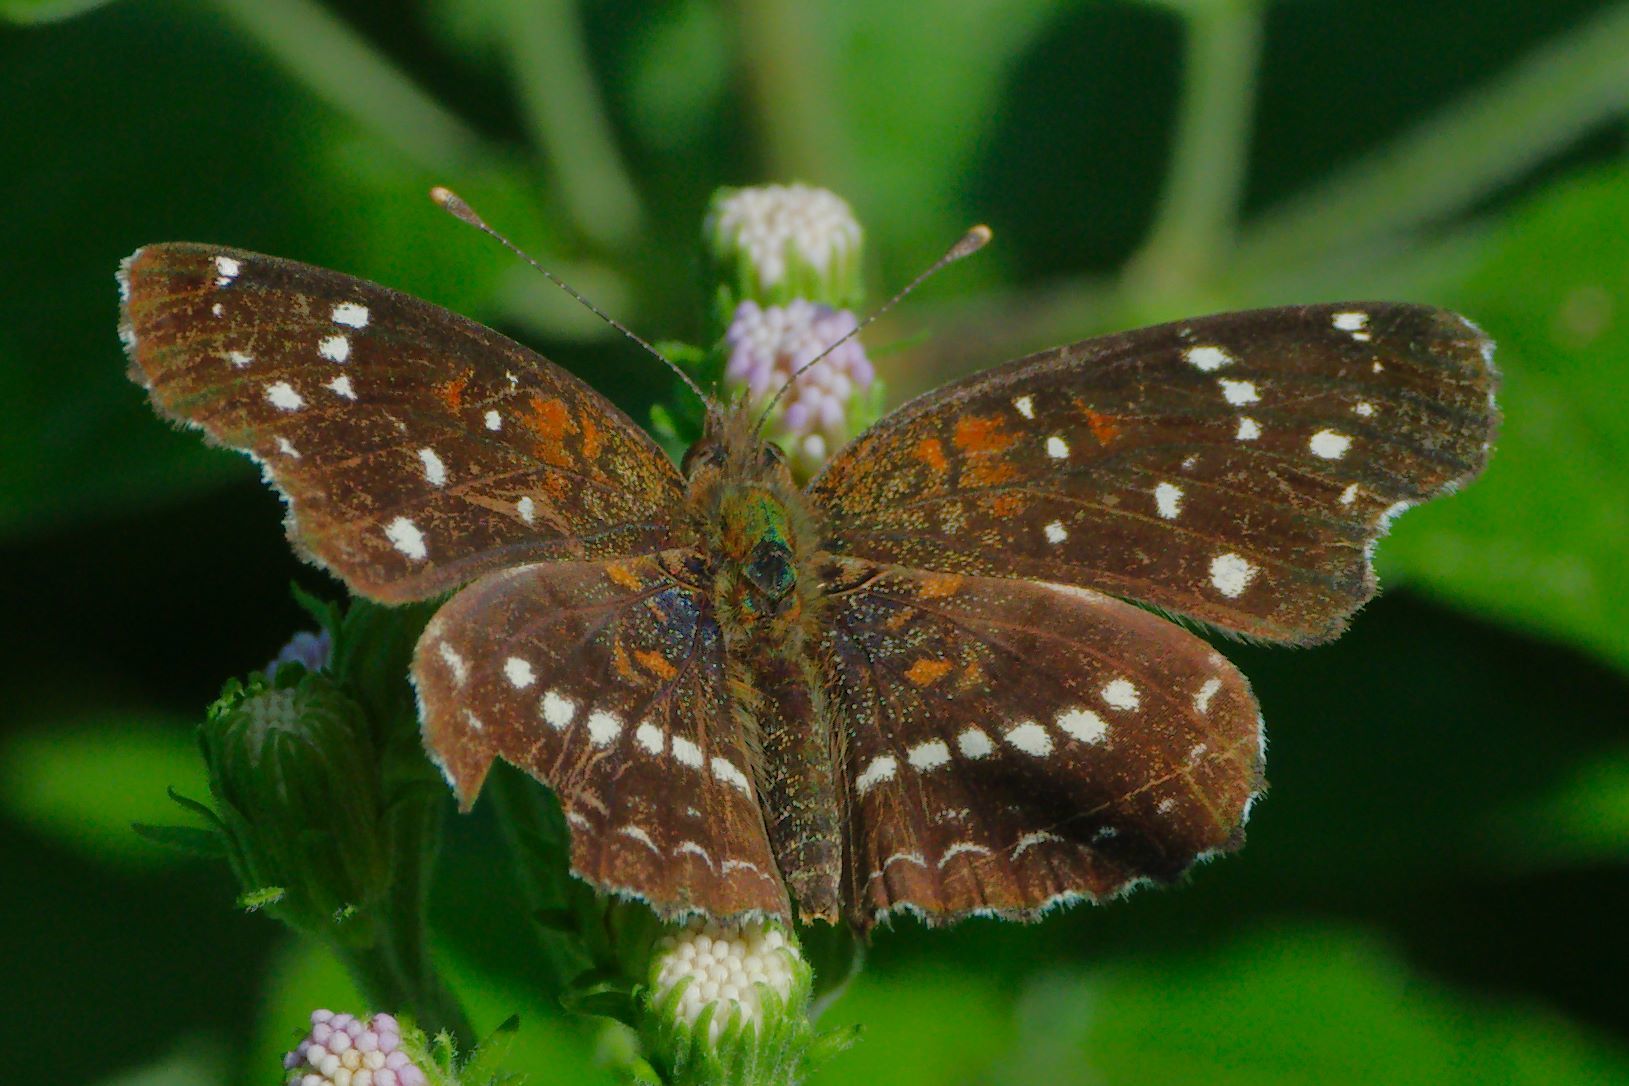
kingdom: Animalia
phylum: Arthropoda
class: Insecta
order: Lepidoptera
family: Nymphalidae
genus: Anthanassa
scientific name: Anthanassa texana
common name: Texan crescent
